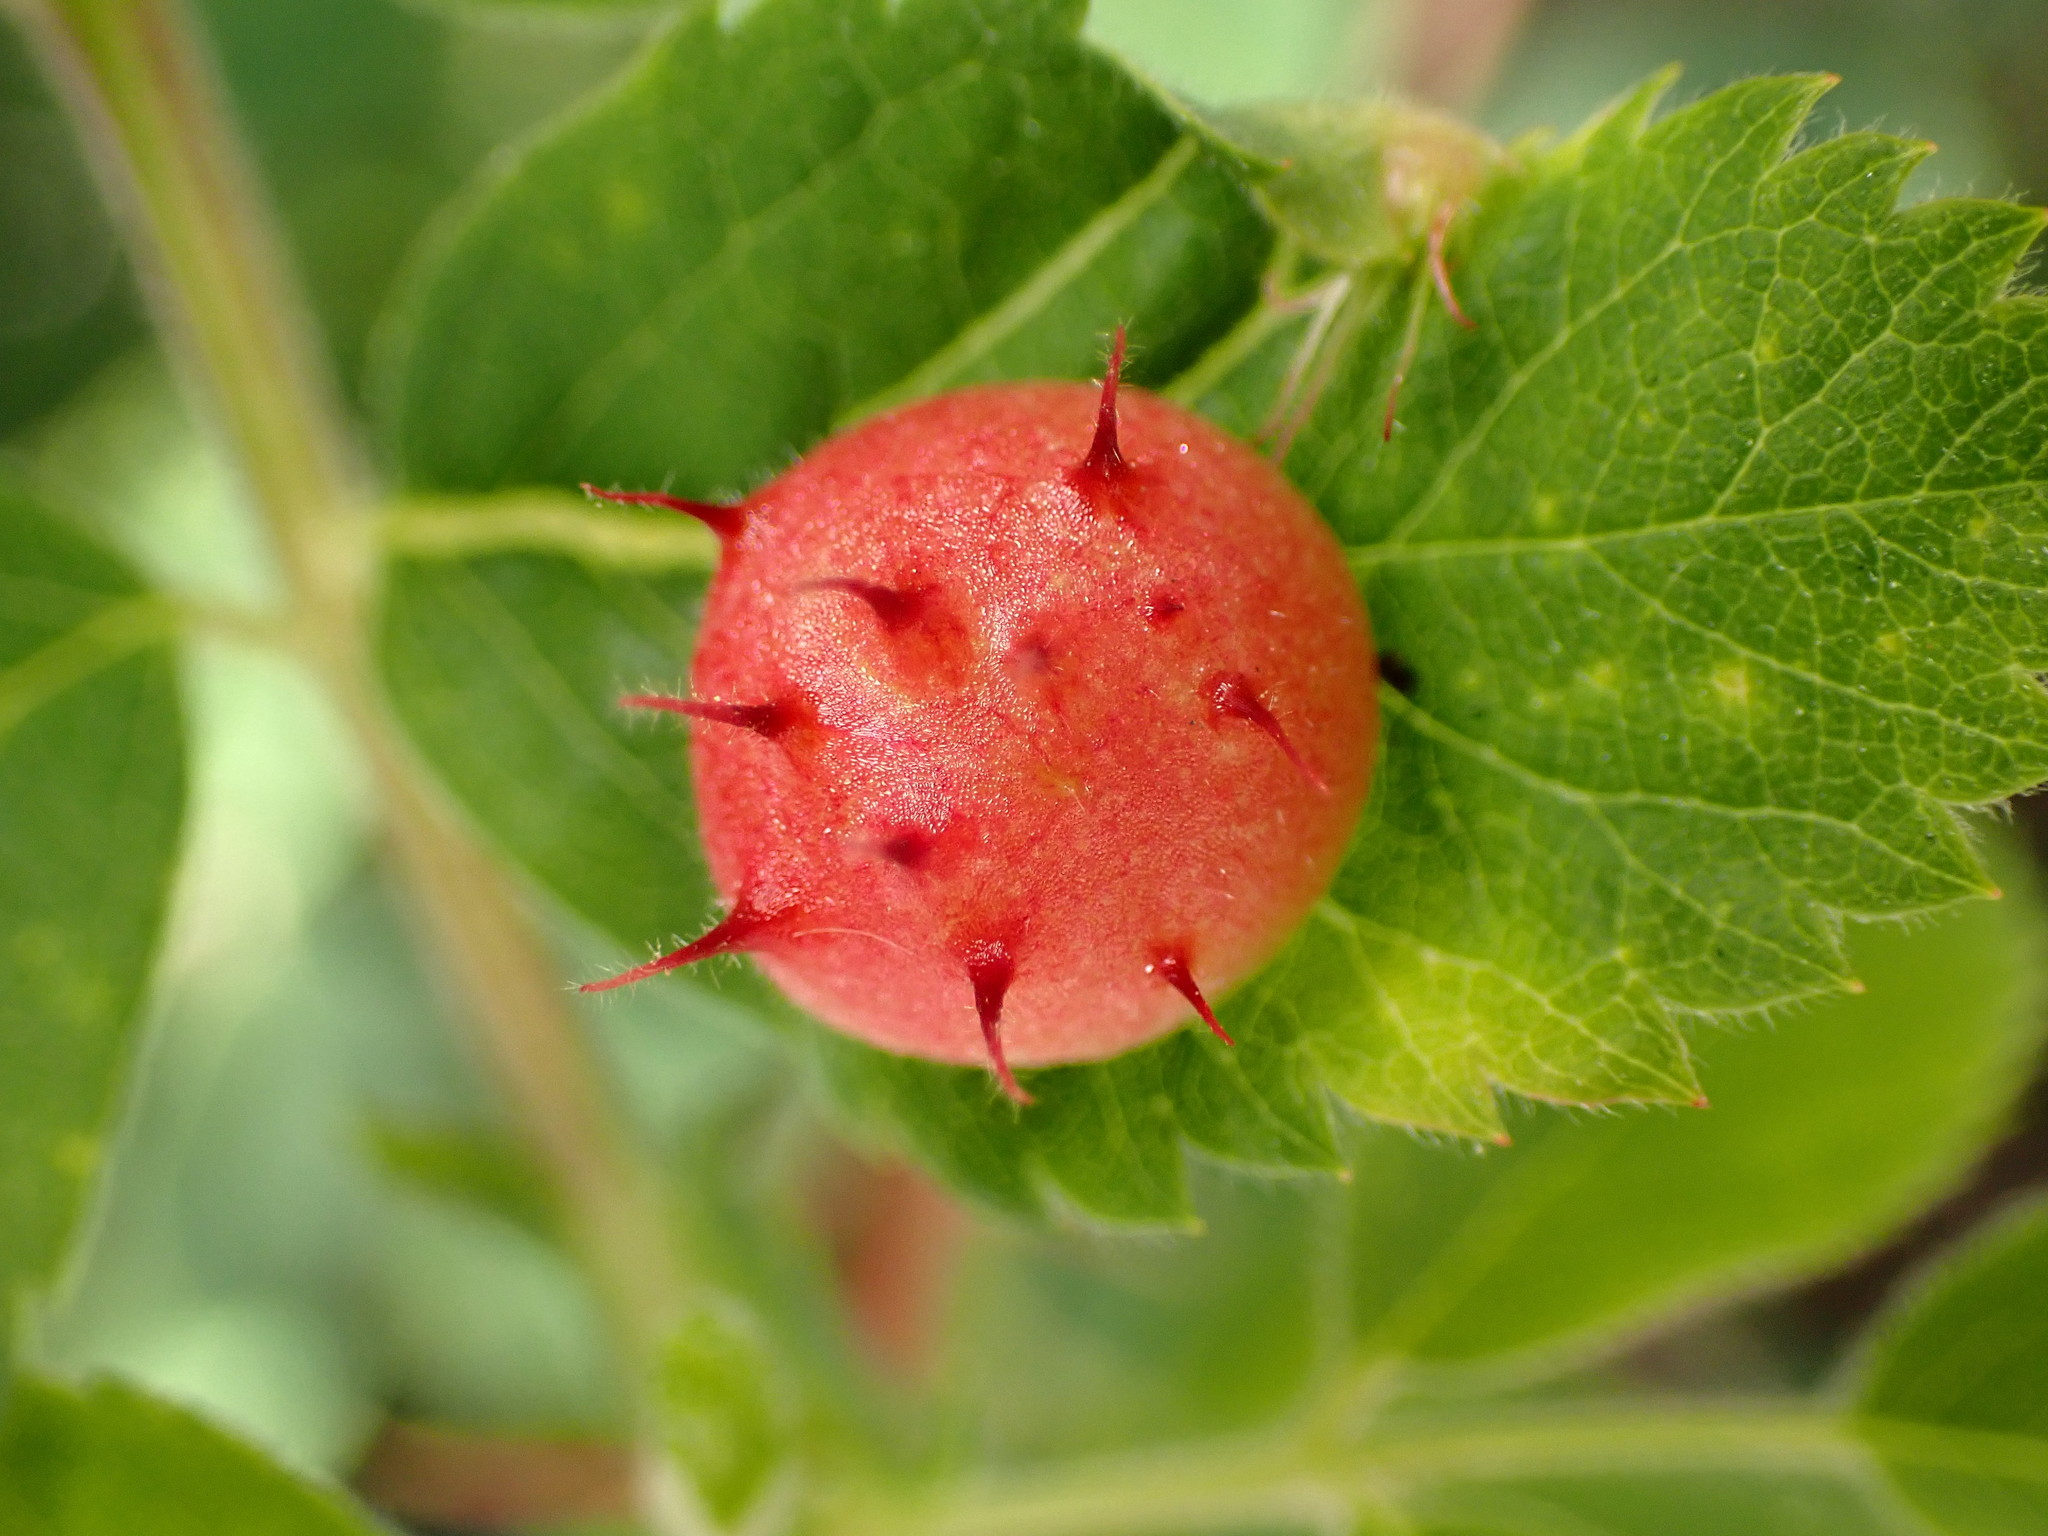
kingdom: Animalia
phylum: Arthropoda
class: Insecta
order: Hymenoptera
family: Cynipidae
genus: Diplolepis
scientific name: Diplolepis polita
